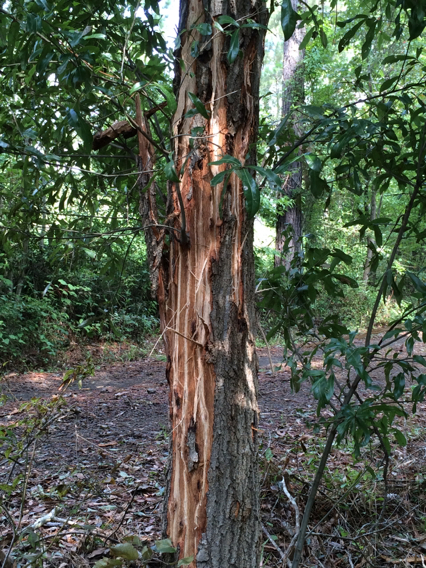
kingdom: Plantae
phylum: Tracheophyta
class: Magnoliopsida
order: Fagales
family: Fagaceae
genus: Quercus
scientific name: Quercus phellos
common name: Willow oak
